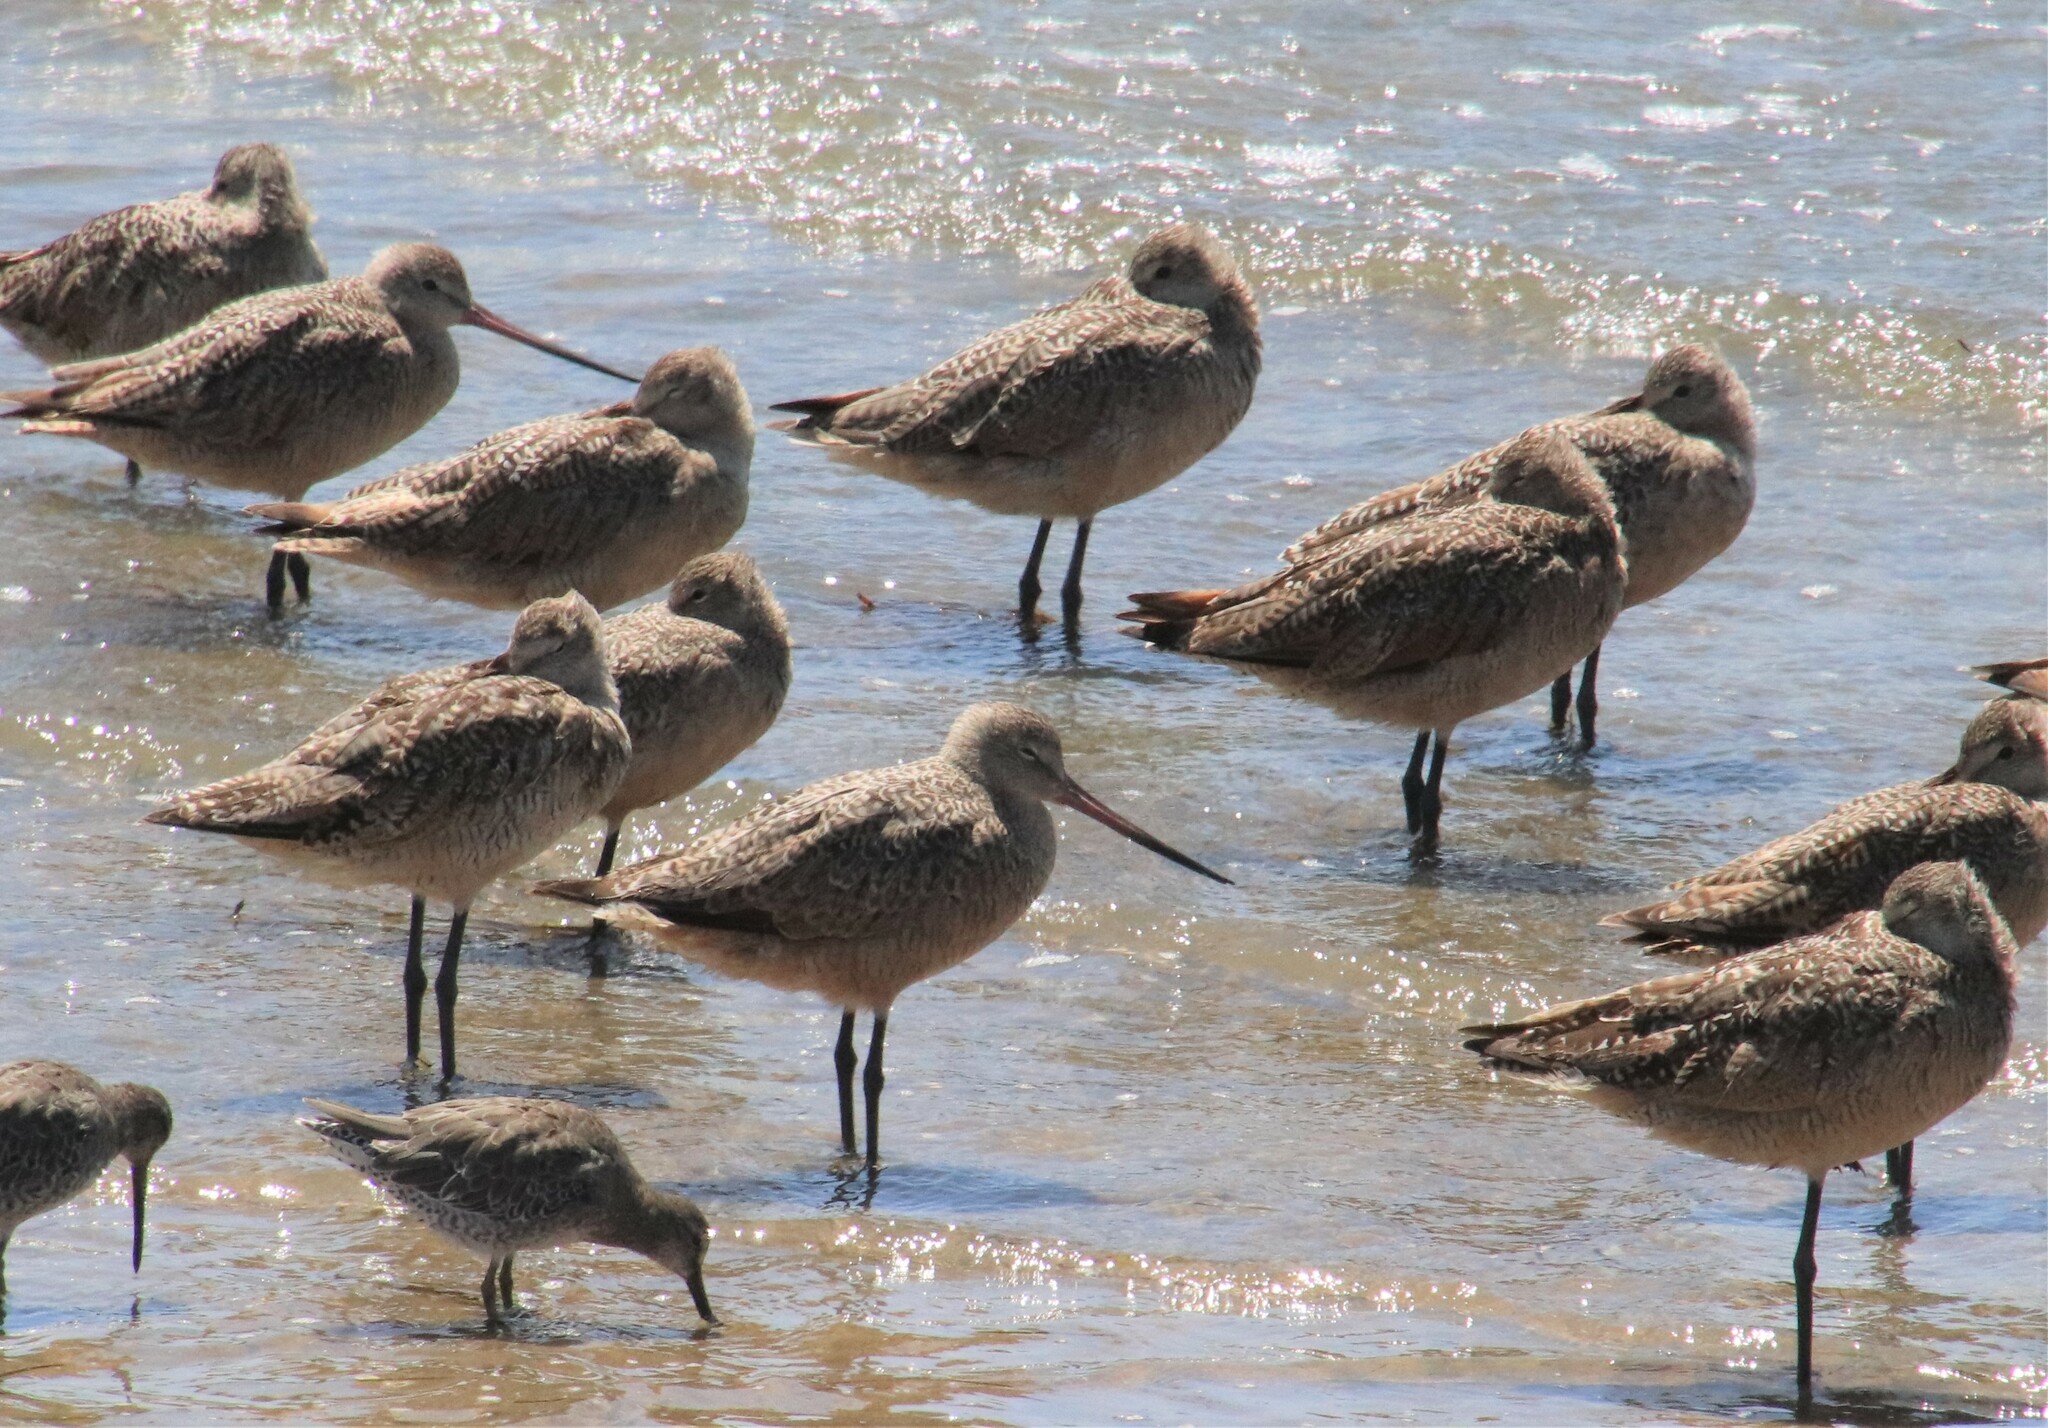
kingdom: Animalia
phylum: Chordata
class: Aves
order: Charadriiformes
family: Scolopacidae
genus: Limosa
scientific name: Limosa fedoa
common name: Marbled godwit
